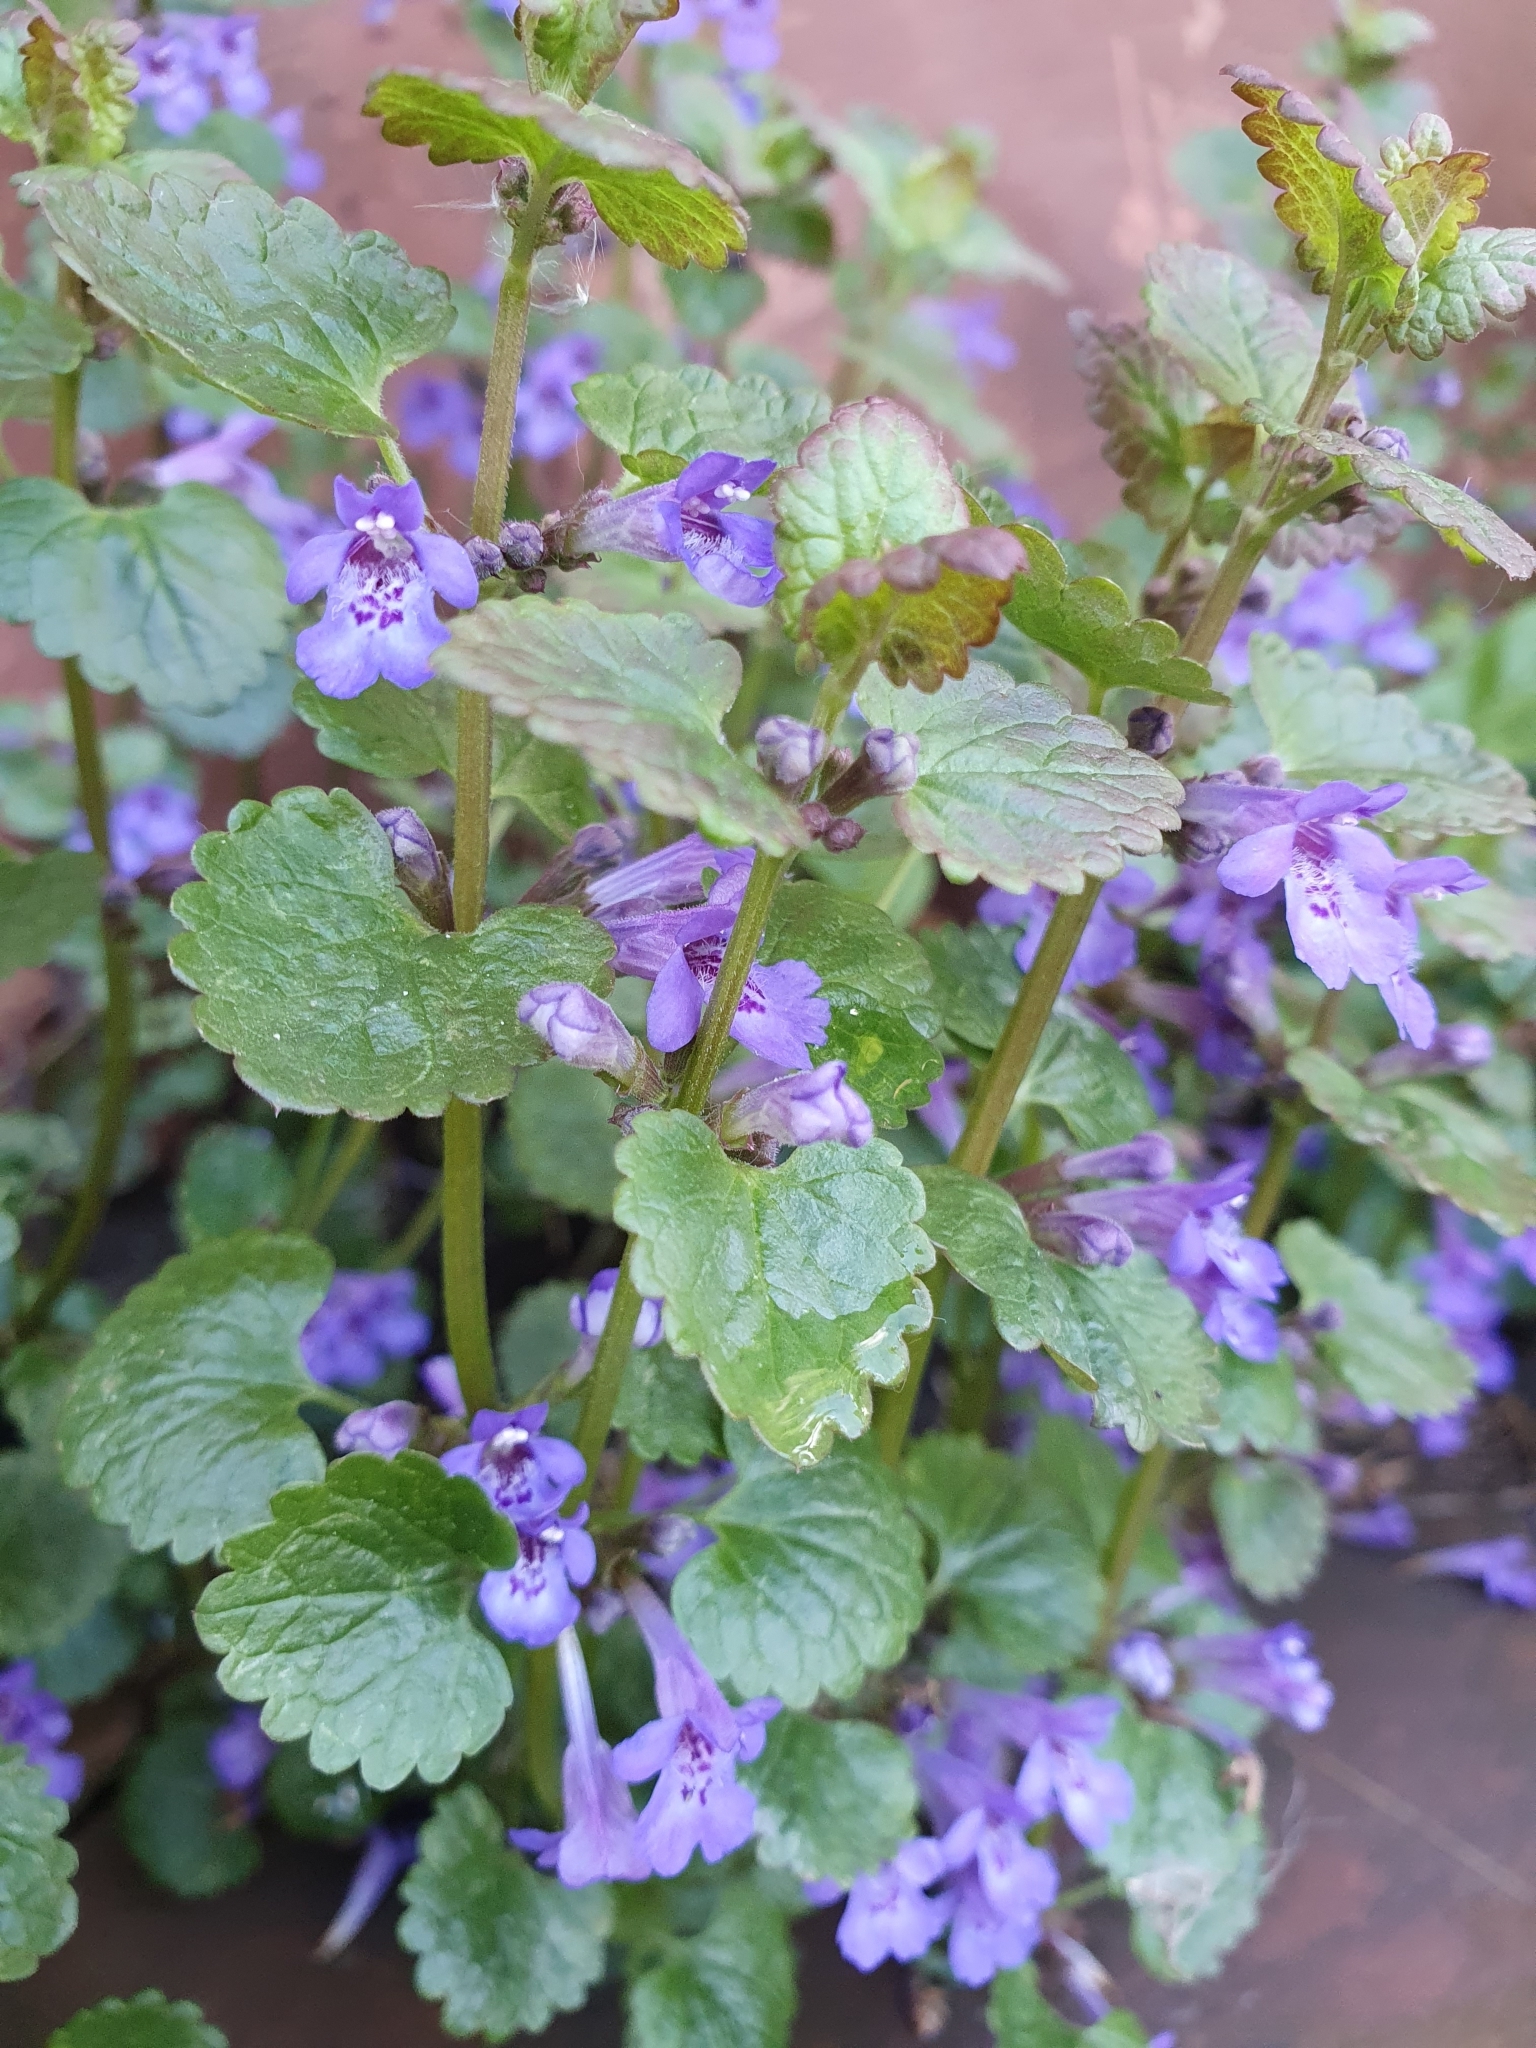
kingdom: Plantae
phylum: Tracheophyta
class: Magnoliopsida
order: Lamiales
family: Lamiaceae
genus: Glechoma
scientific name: Glechoma hederacea
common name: Ground ivy
